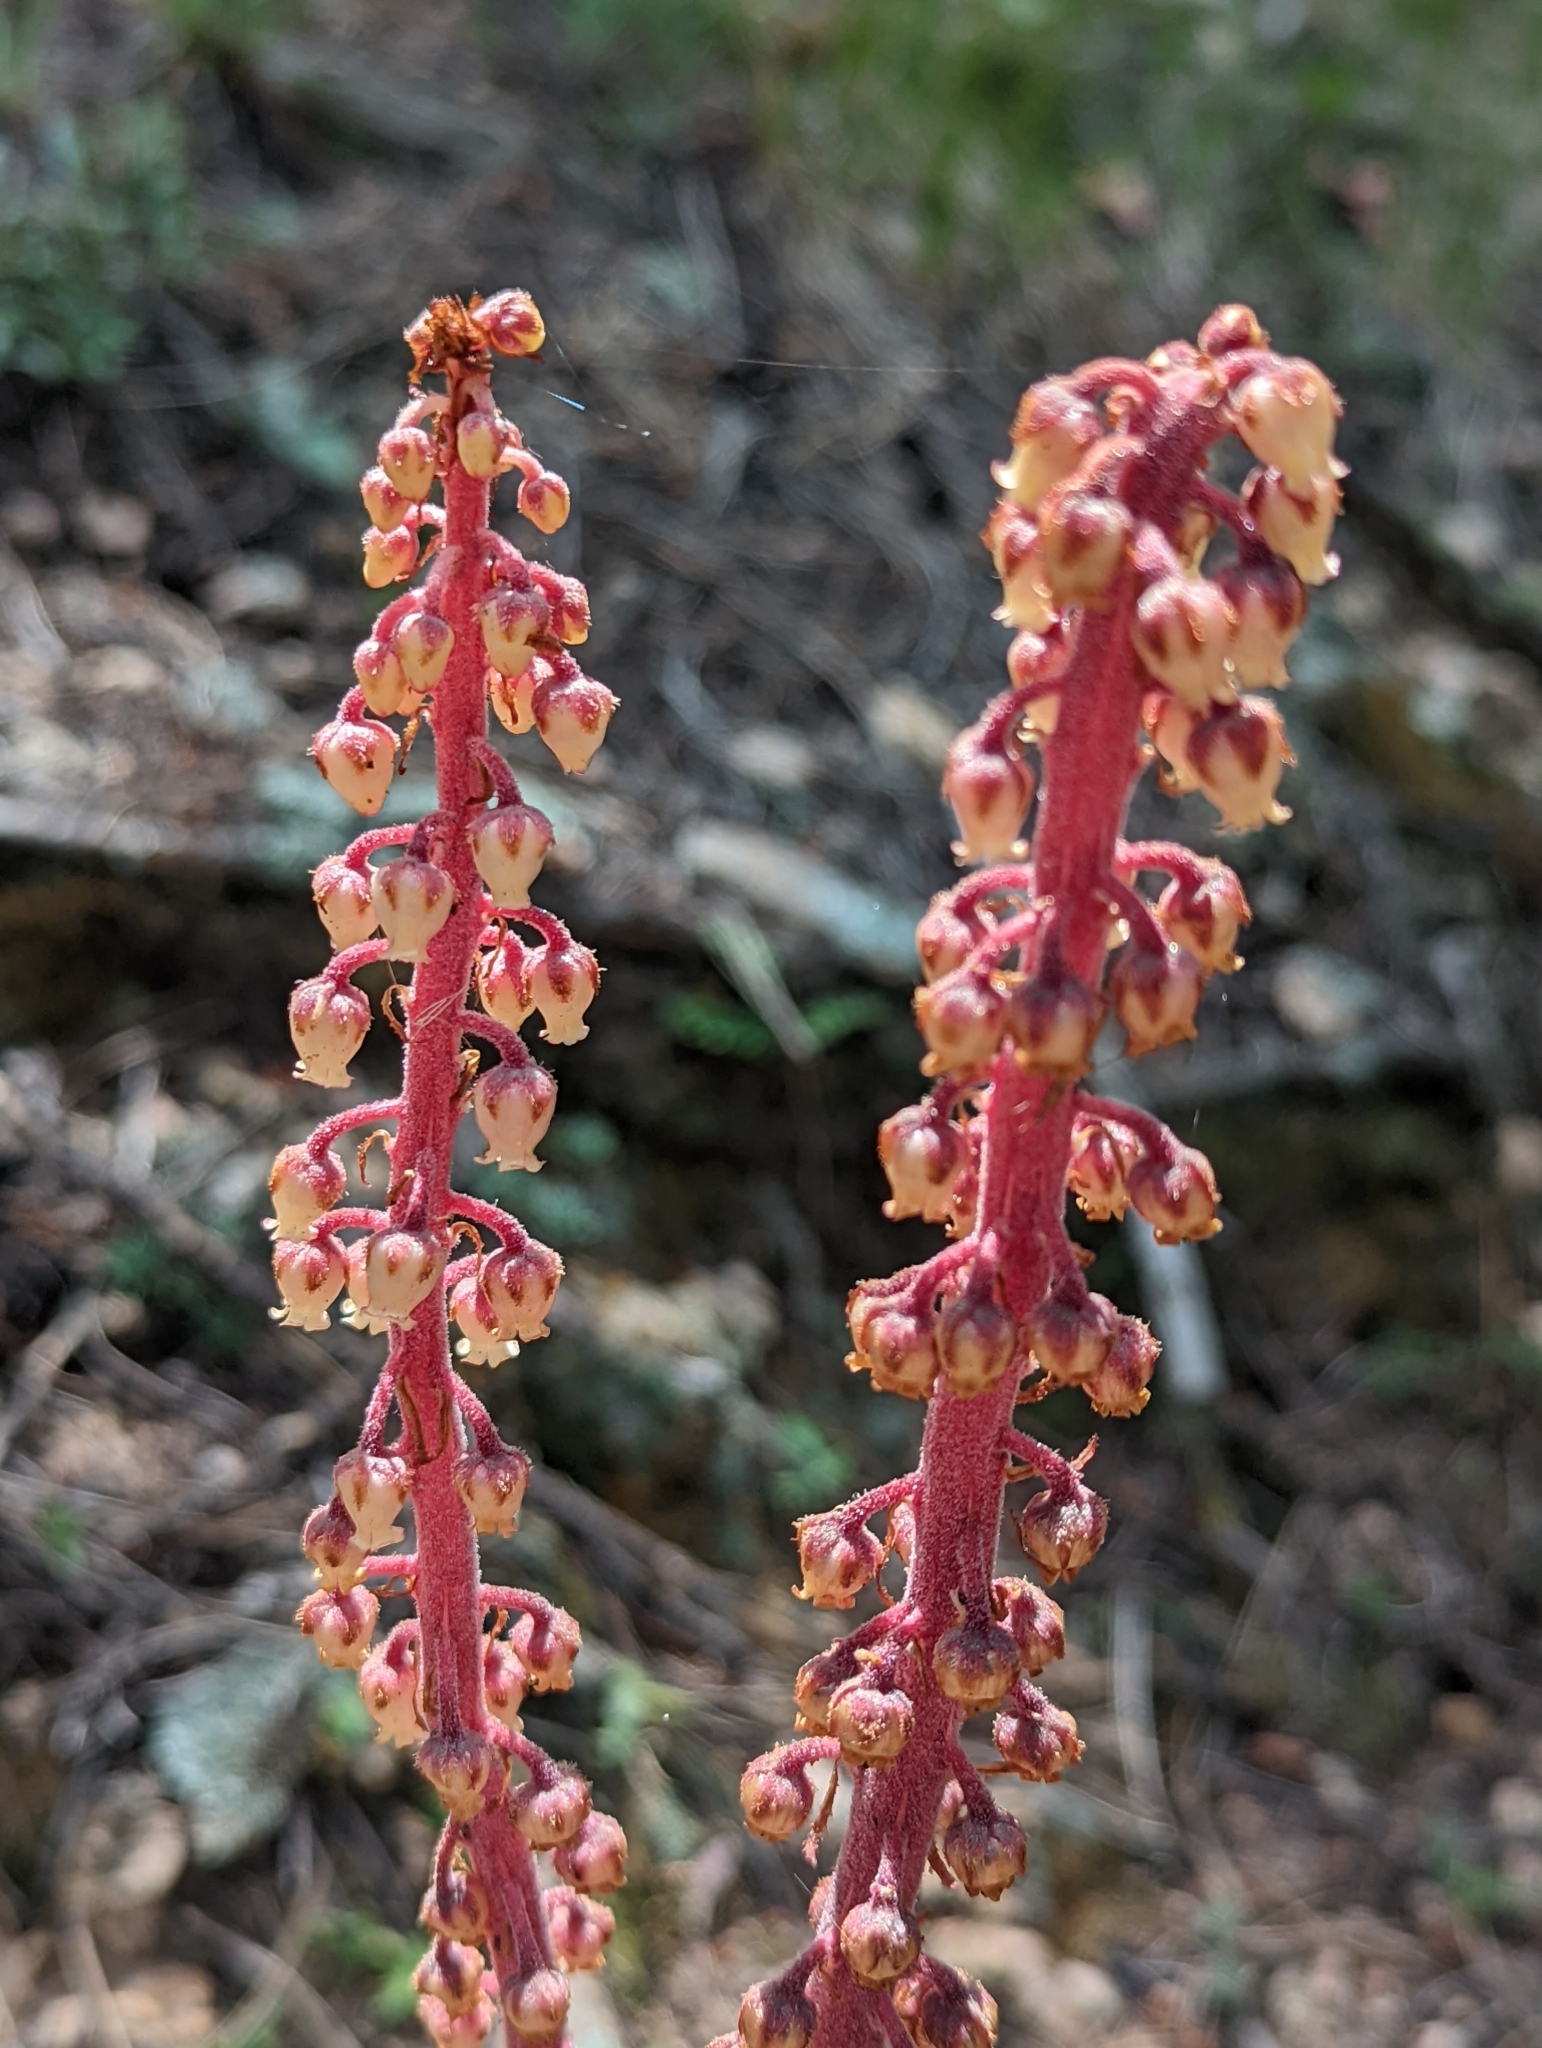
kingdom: Plantae
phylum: Tracheophyta
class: Magnoliopsida
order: Ericales
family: Ericaceae
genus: Pterospora
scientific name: Pterospora andromedea
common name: Giant bird's-nest
